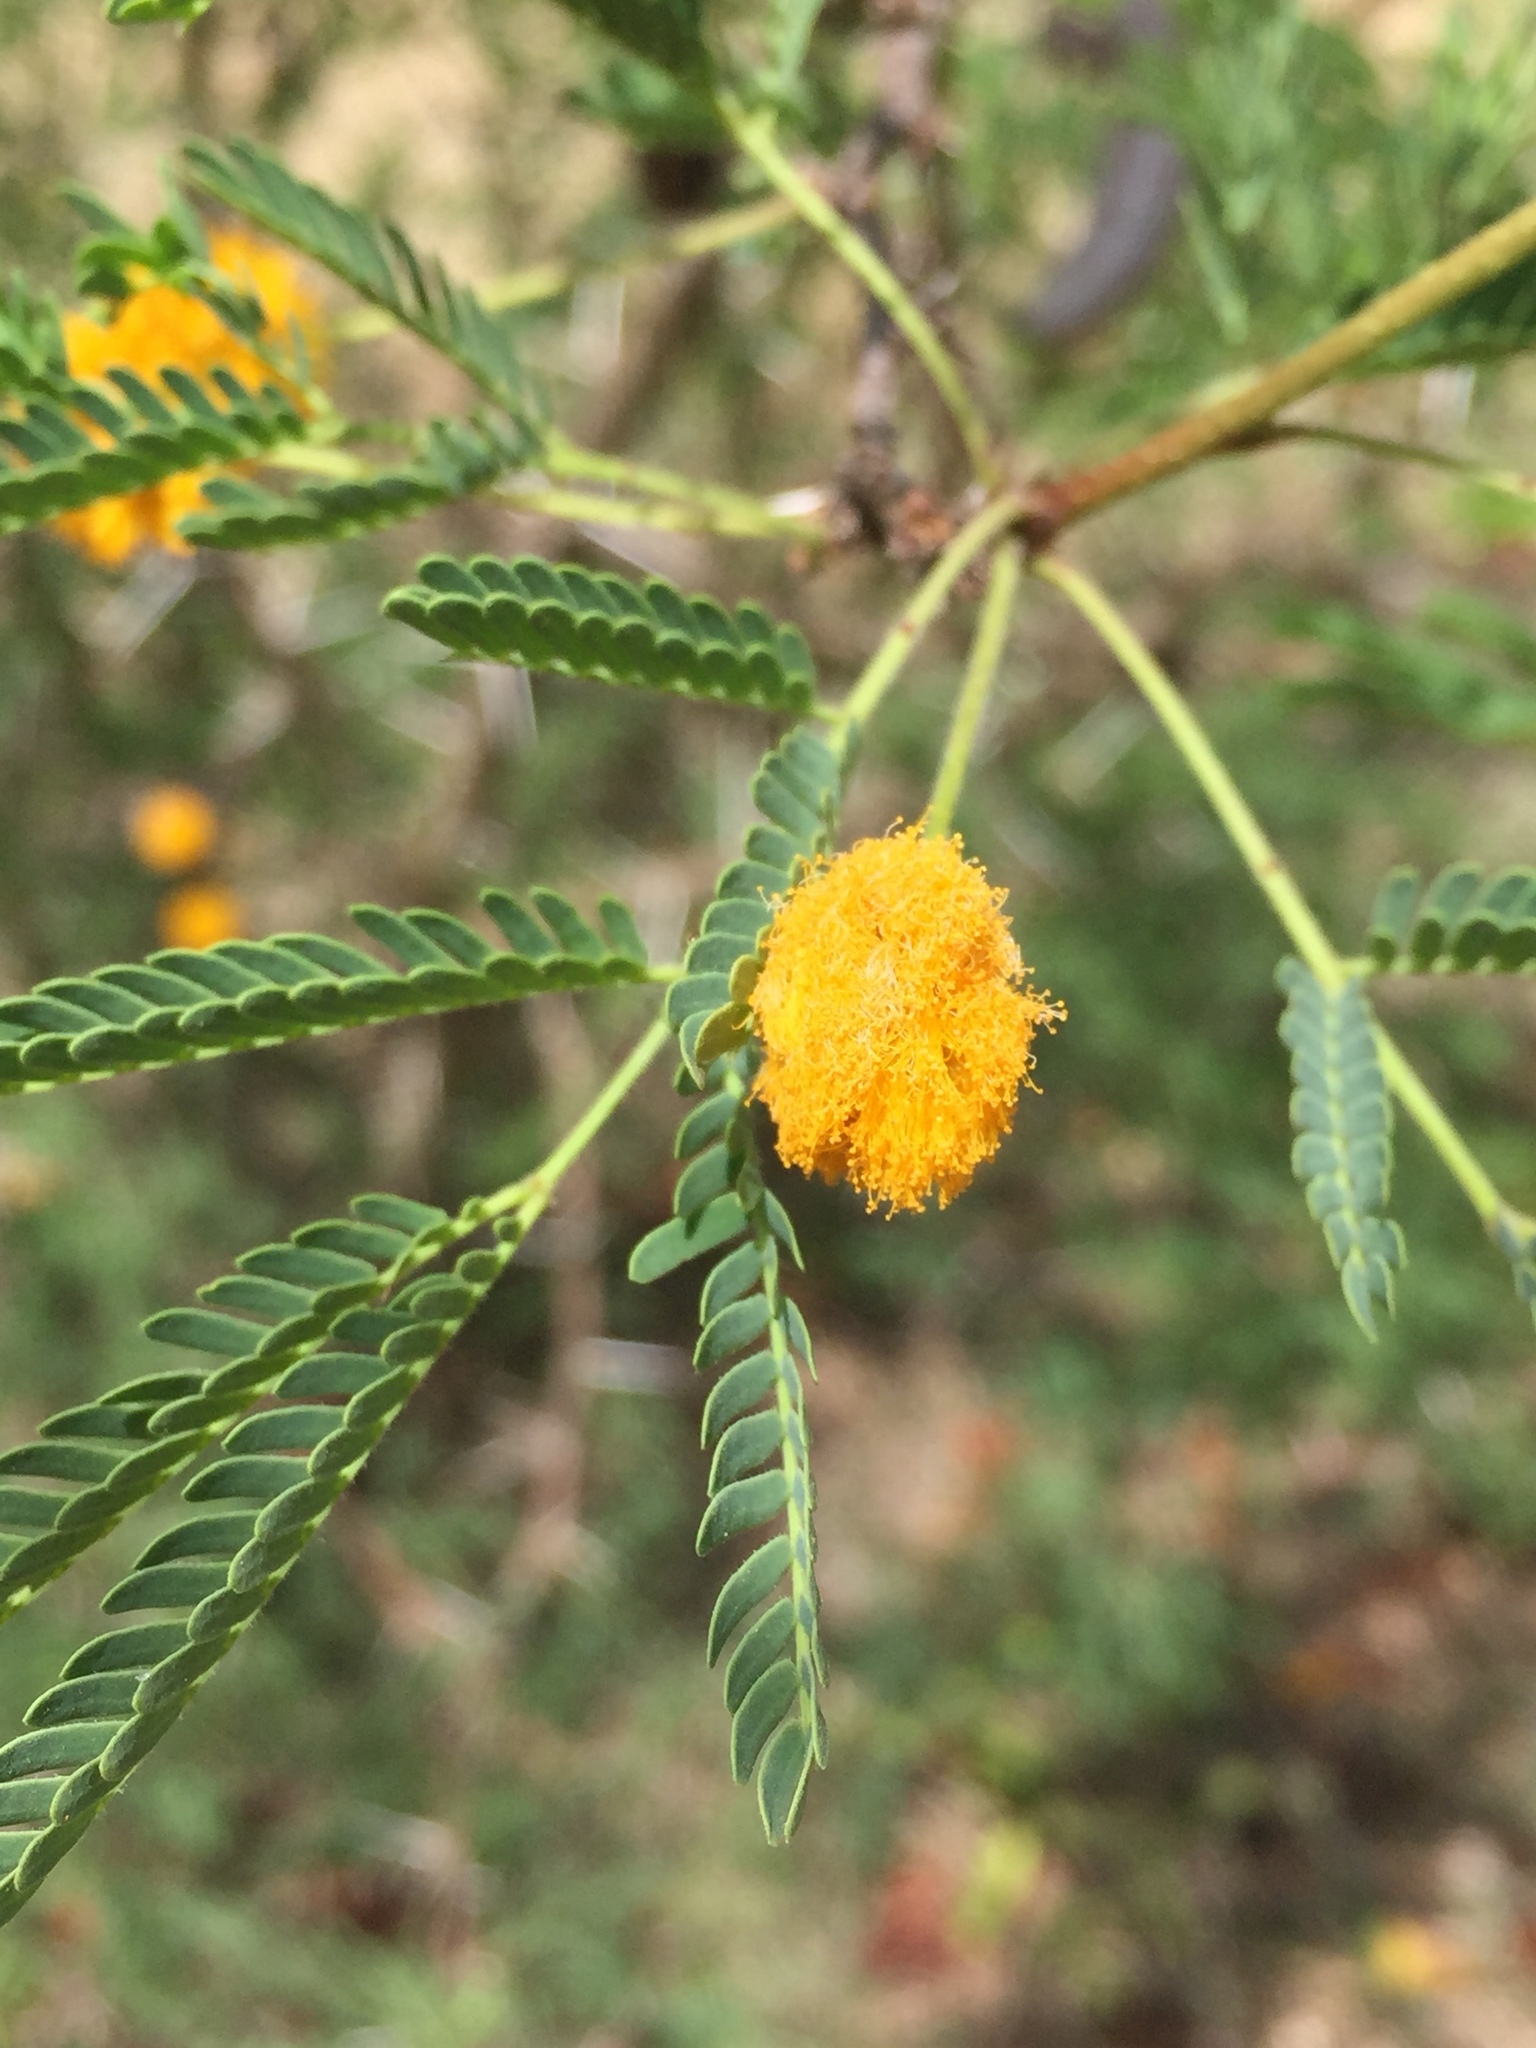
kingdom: Plantae
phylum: Tracheophyta
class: Magnoliopsida
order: Fabales
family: Fabaceae
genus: Vachellia
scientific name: Vachellia farnesiana
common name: Sweet acacia
